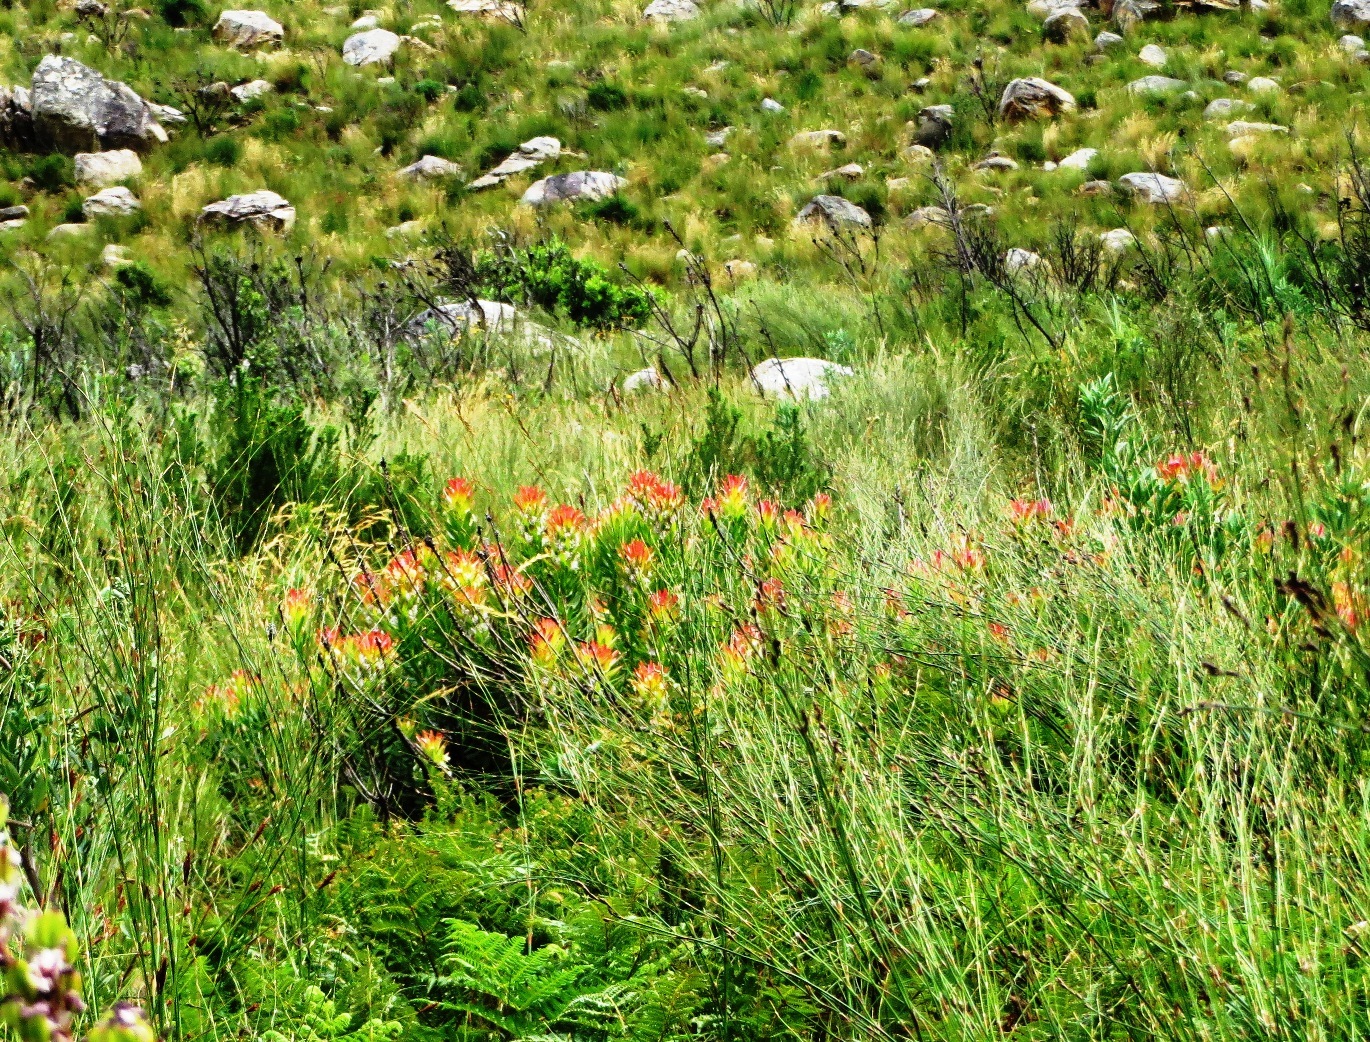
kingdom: Plantae
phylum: Tracheophyta
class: Magnoliopsida
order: Proteales
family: Proteaceae
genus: Mimetes
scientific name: Mimetes cucullatus
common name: Common pagoda
